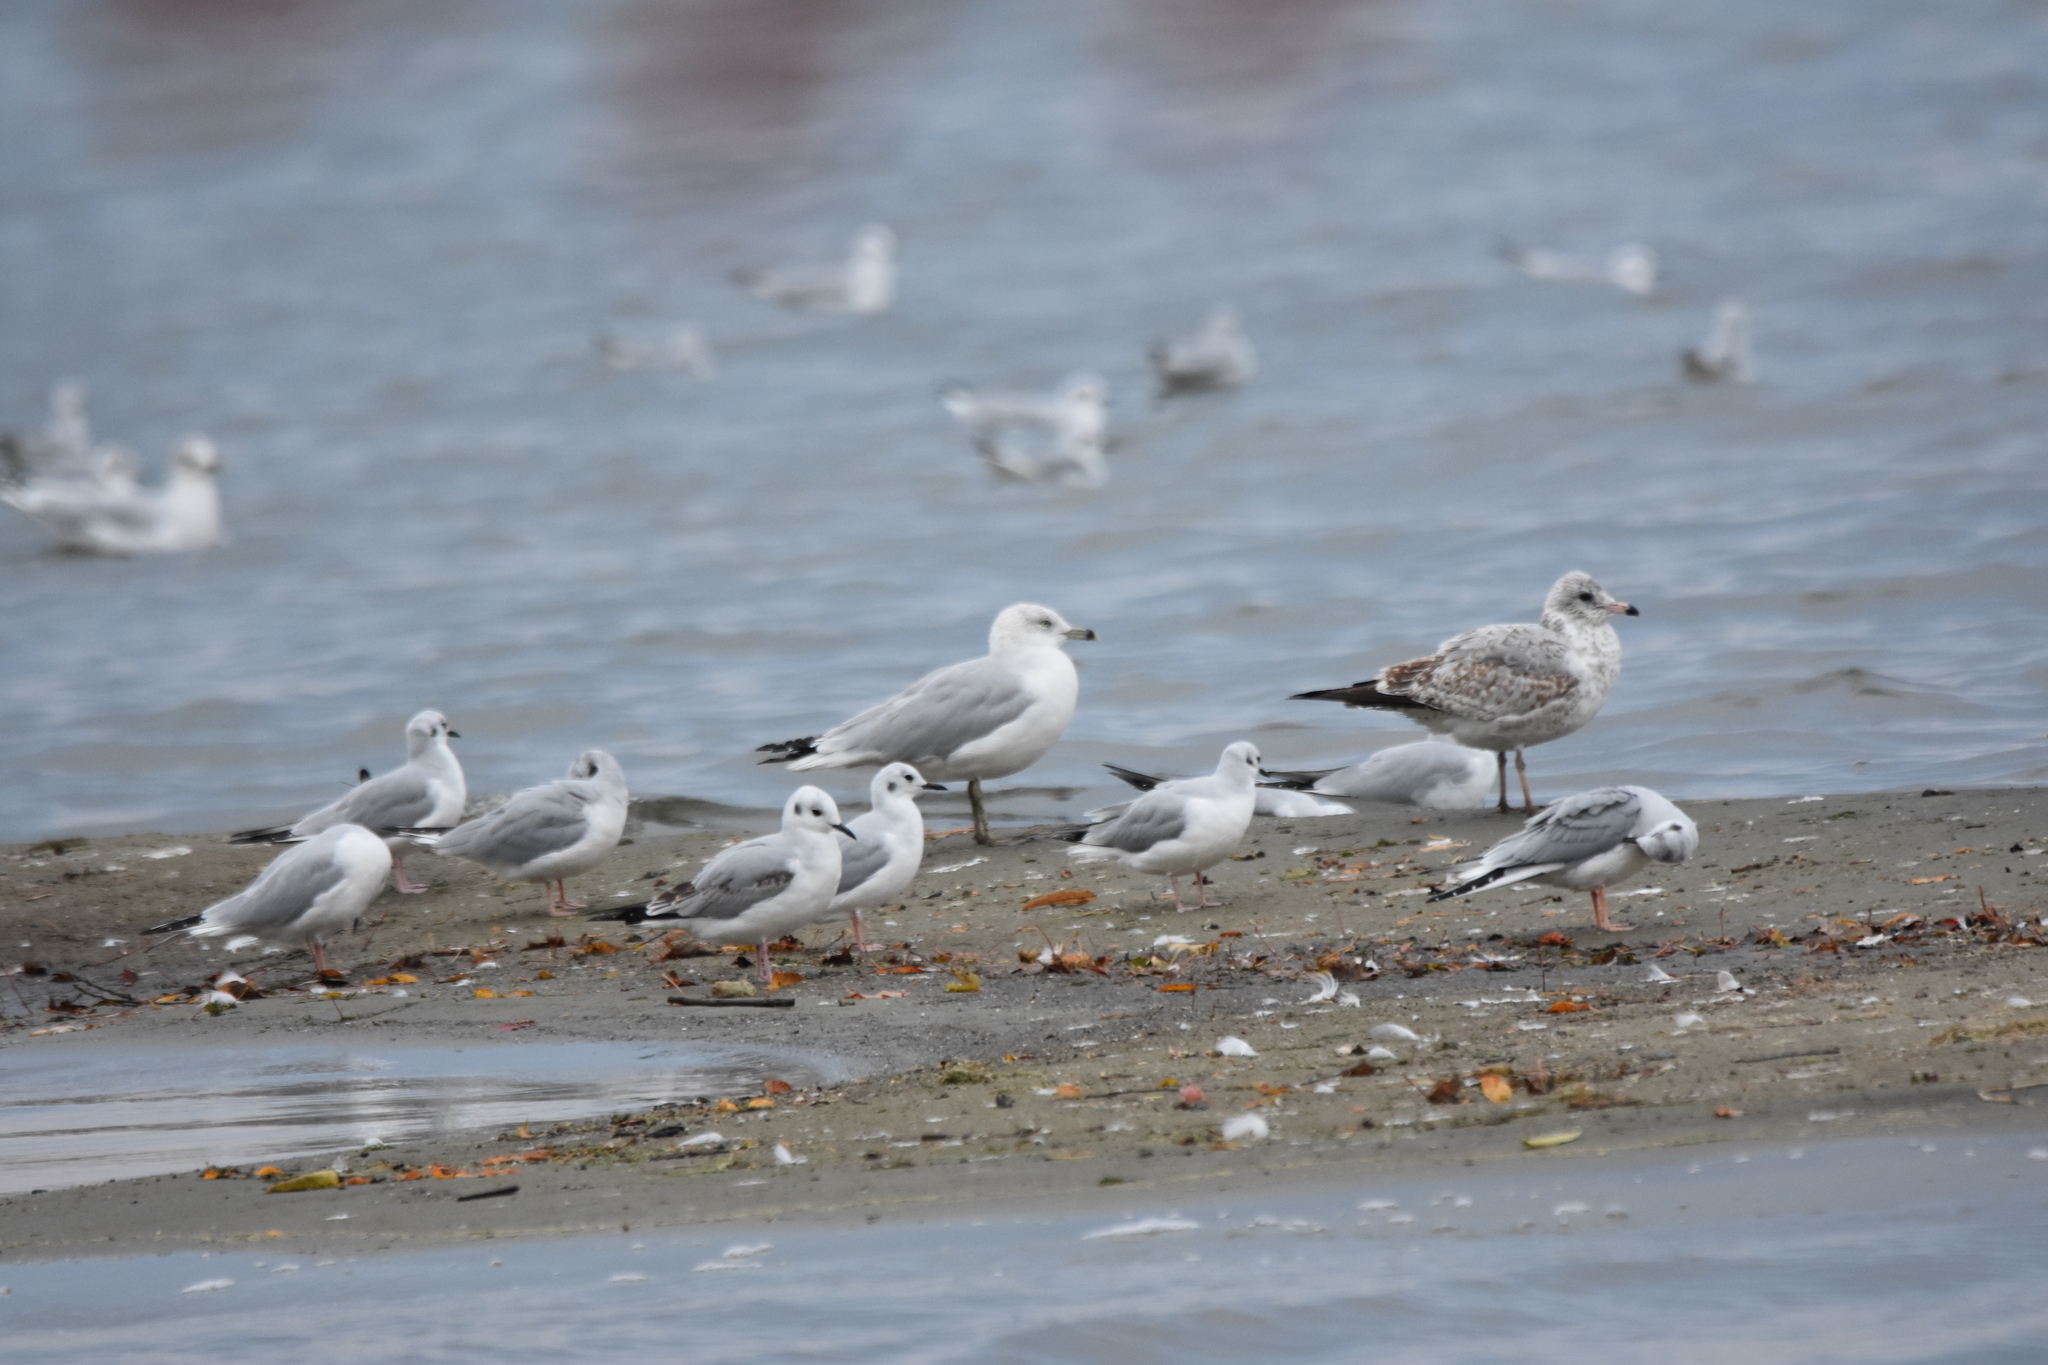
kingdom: Animalia
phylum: Chordata
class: Aves
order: Charadriiformes
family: Laridae
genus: Larus
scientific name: Larus delawarensis
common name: Ring-billed gull
